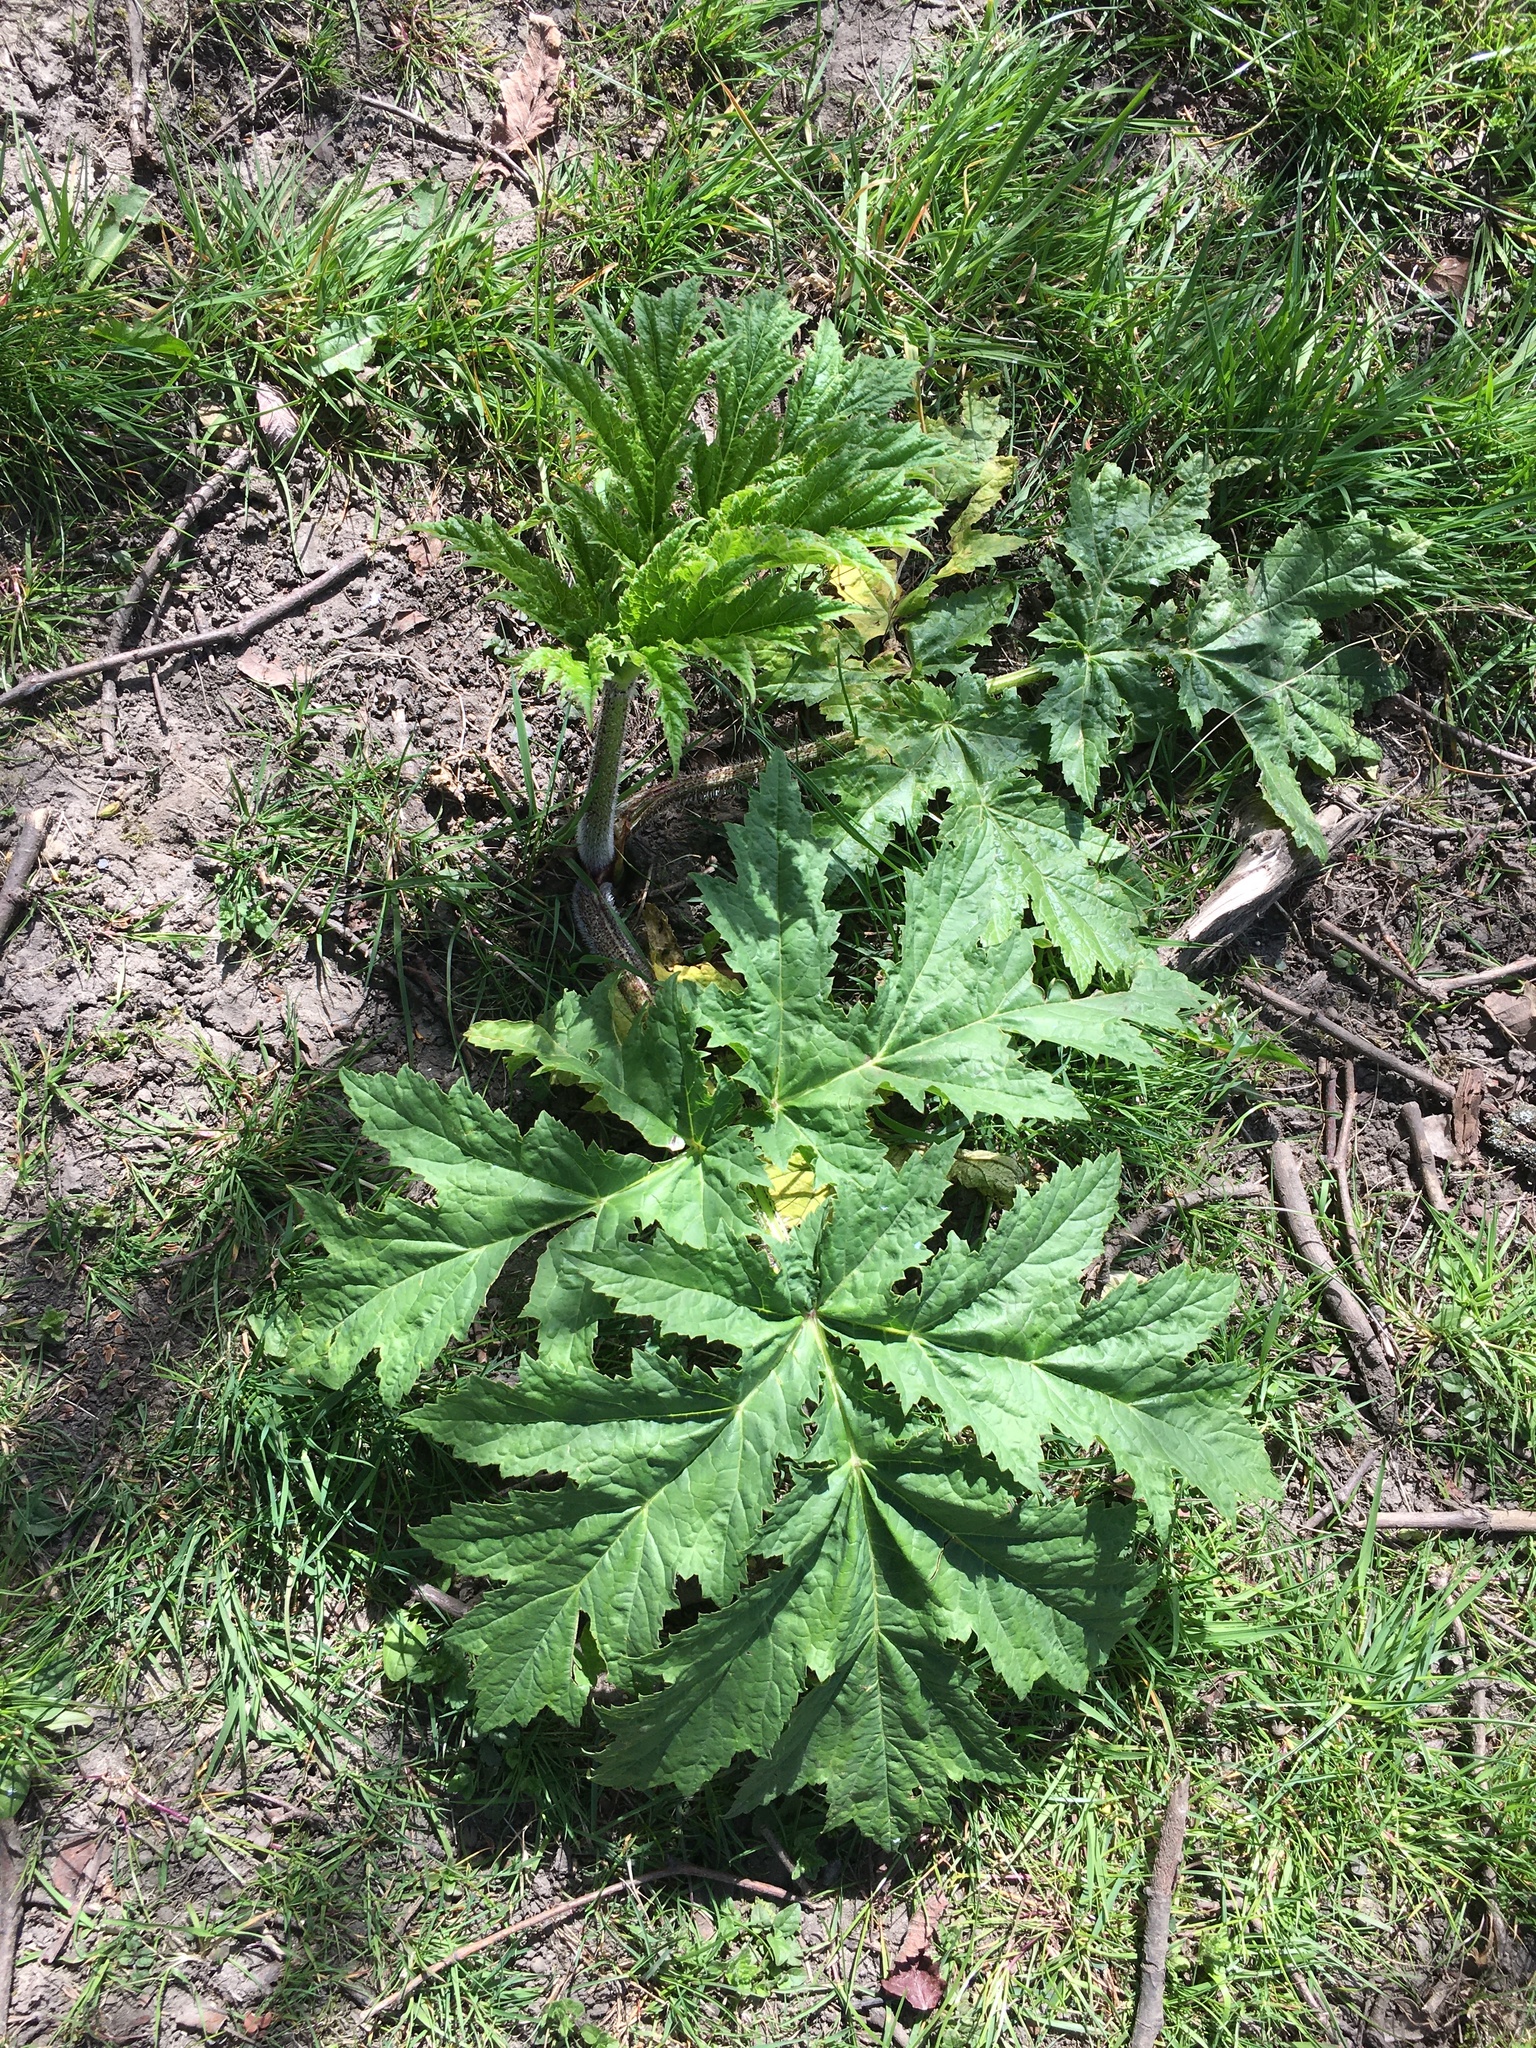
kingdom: Plantae
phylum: Tracheophyta
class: Magnoliopsida
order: Apiales
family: Apiaceae
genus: Heracleum
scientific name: Heracleum mantegazzianum
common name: Giant hogweed
